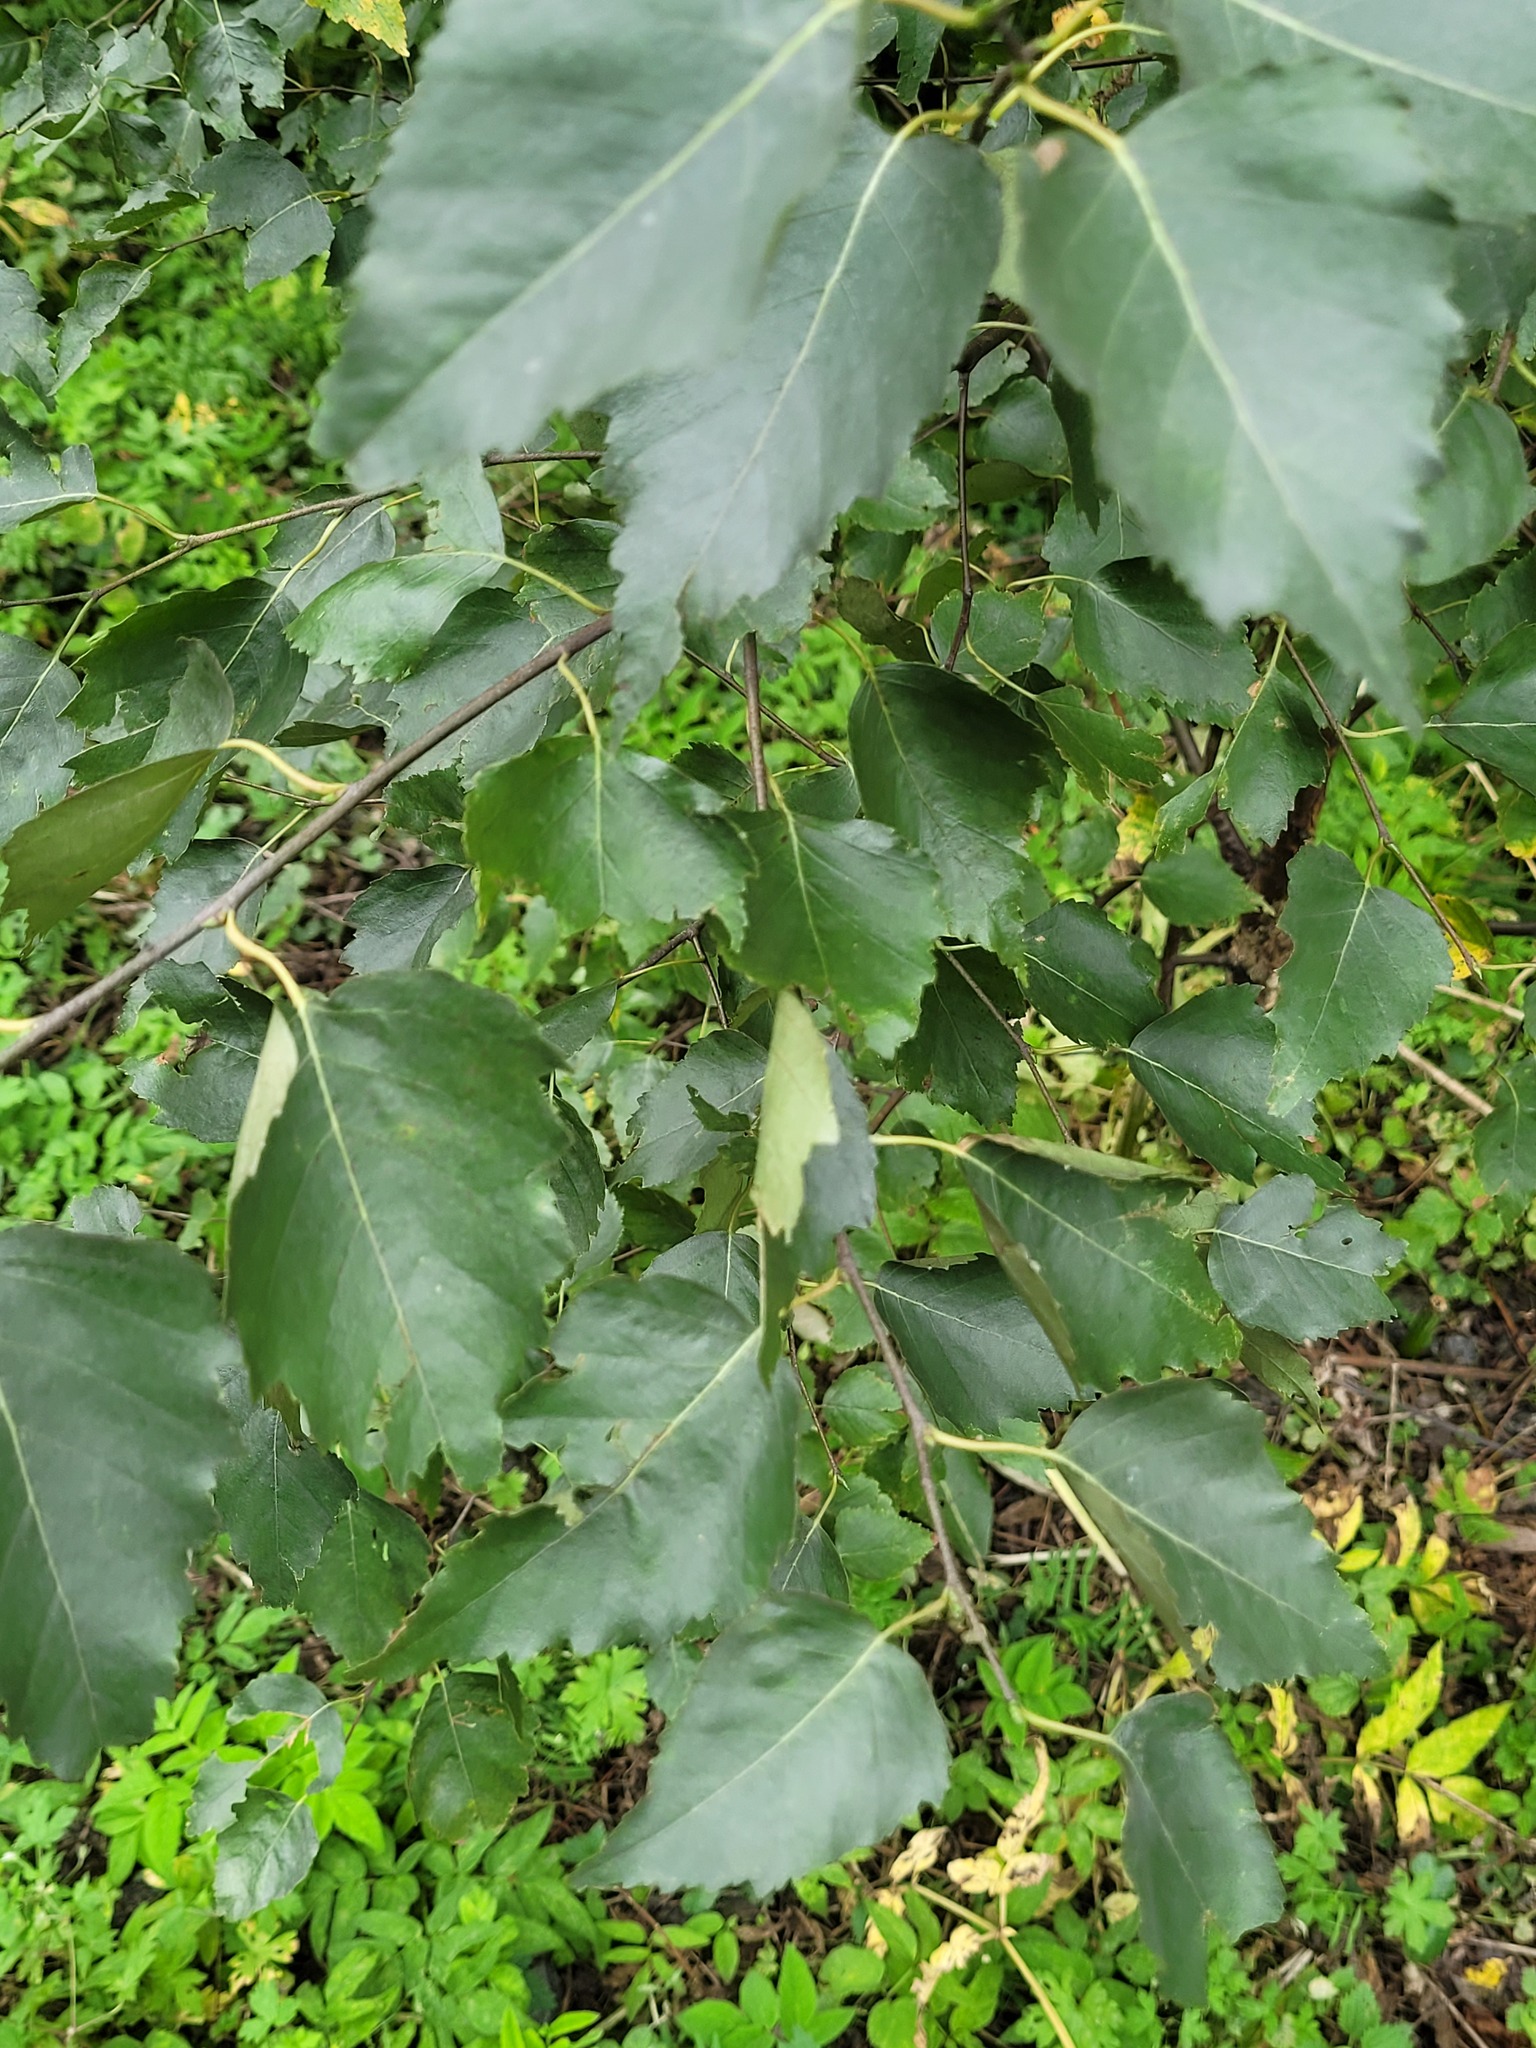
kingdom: Plantae
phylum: Tracheophyta
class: Magnoliopsida
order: Fagales
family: Betulaceae
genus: Betula
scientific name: Betula pendula
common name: Silver birch
